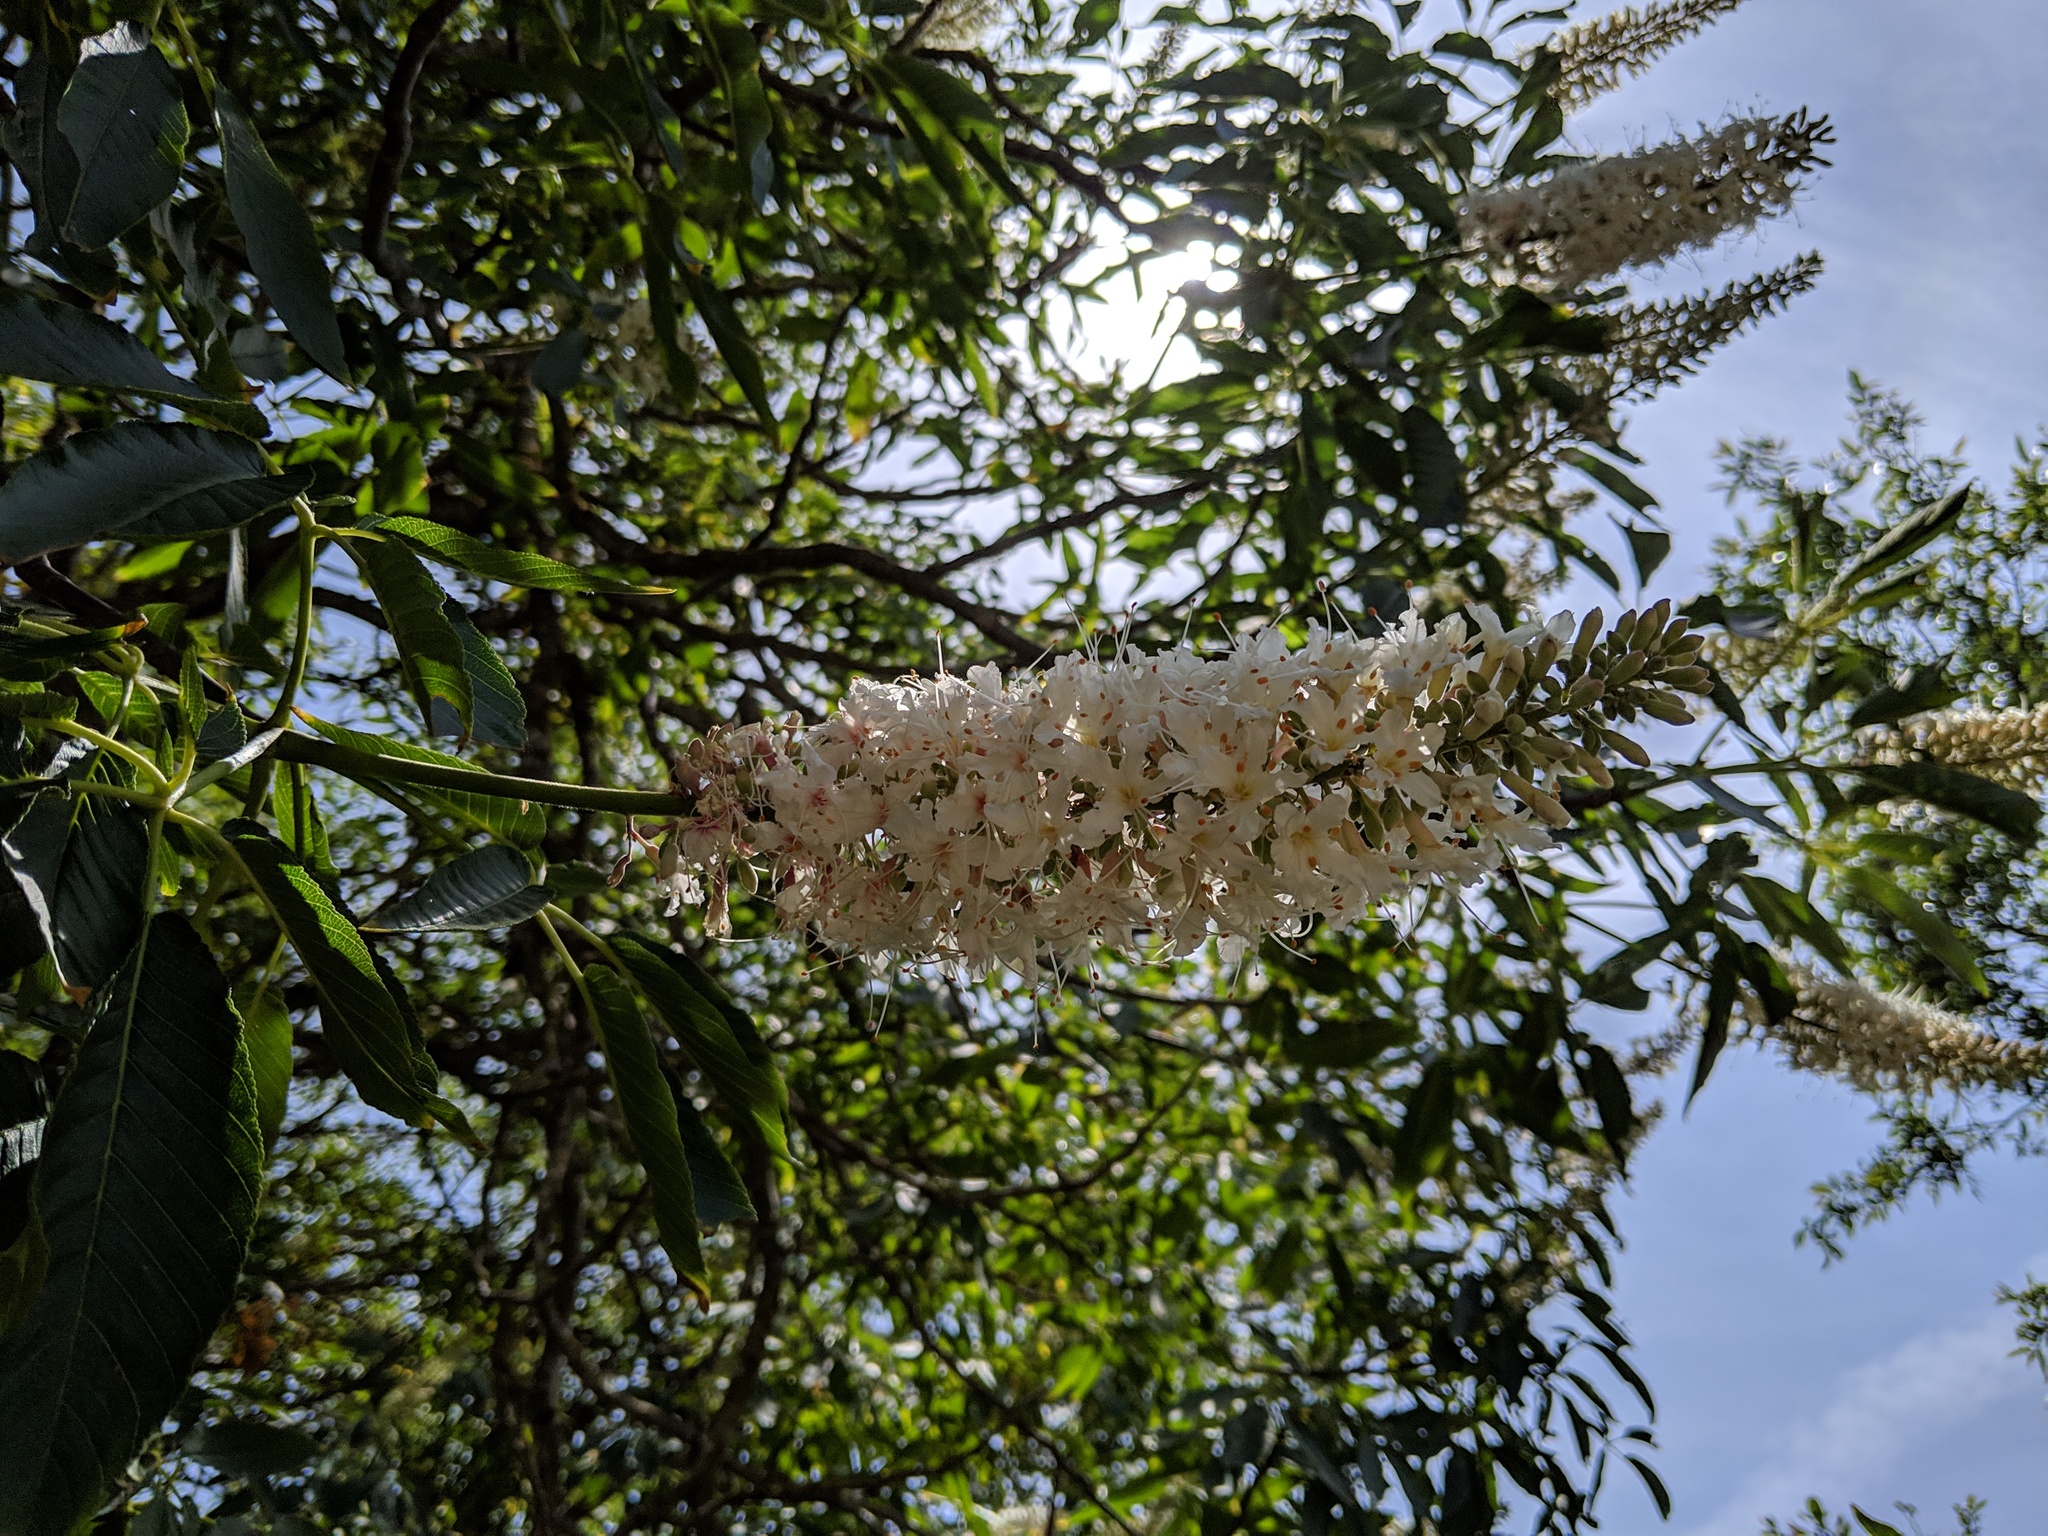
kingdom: Plantae
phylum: Tracheophyta
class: Magnoliopsida
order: Sapindales
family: Sapindaceae
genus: Aesculus
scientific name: Aesculus californica
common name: California buckeye
